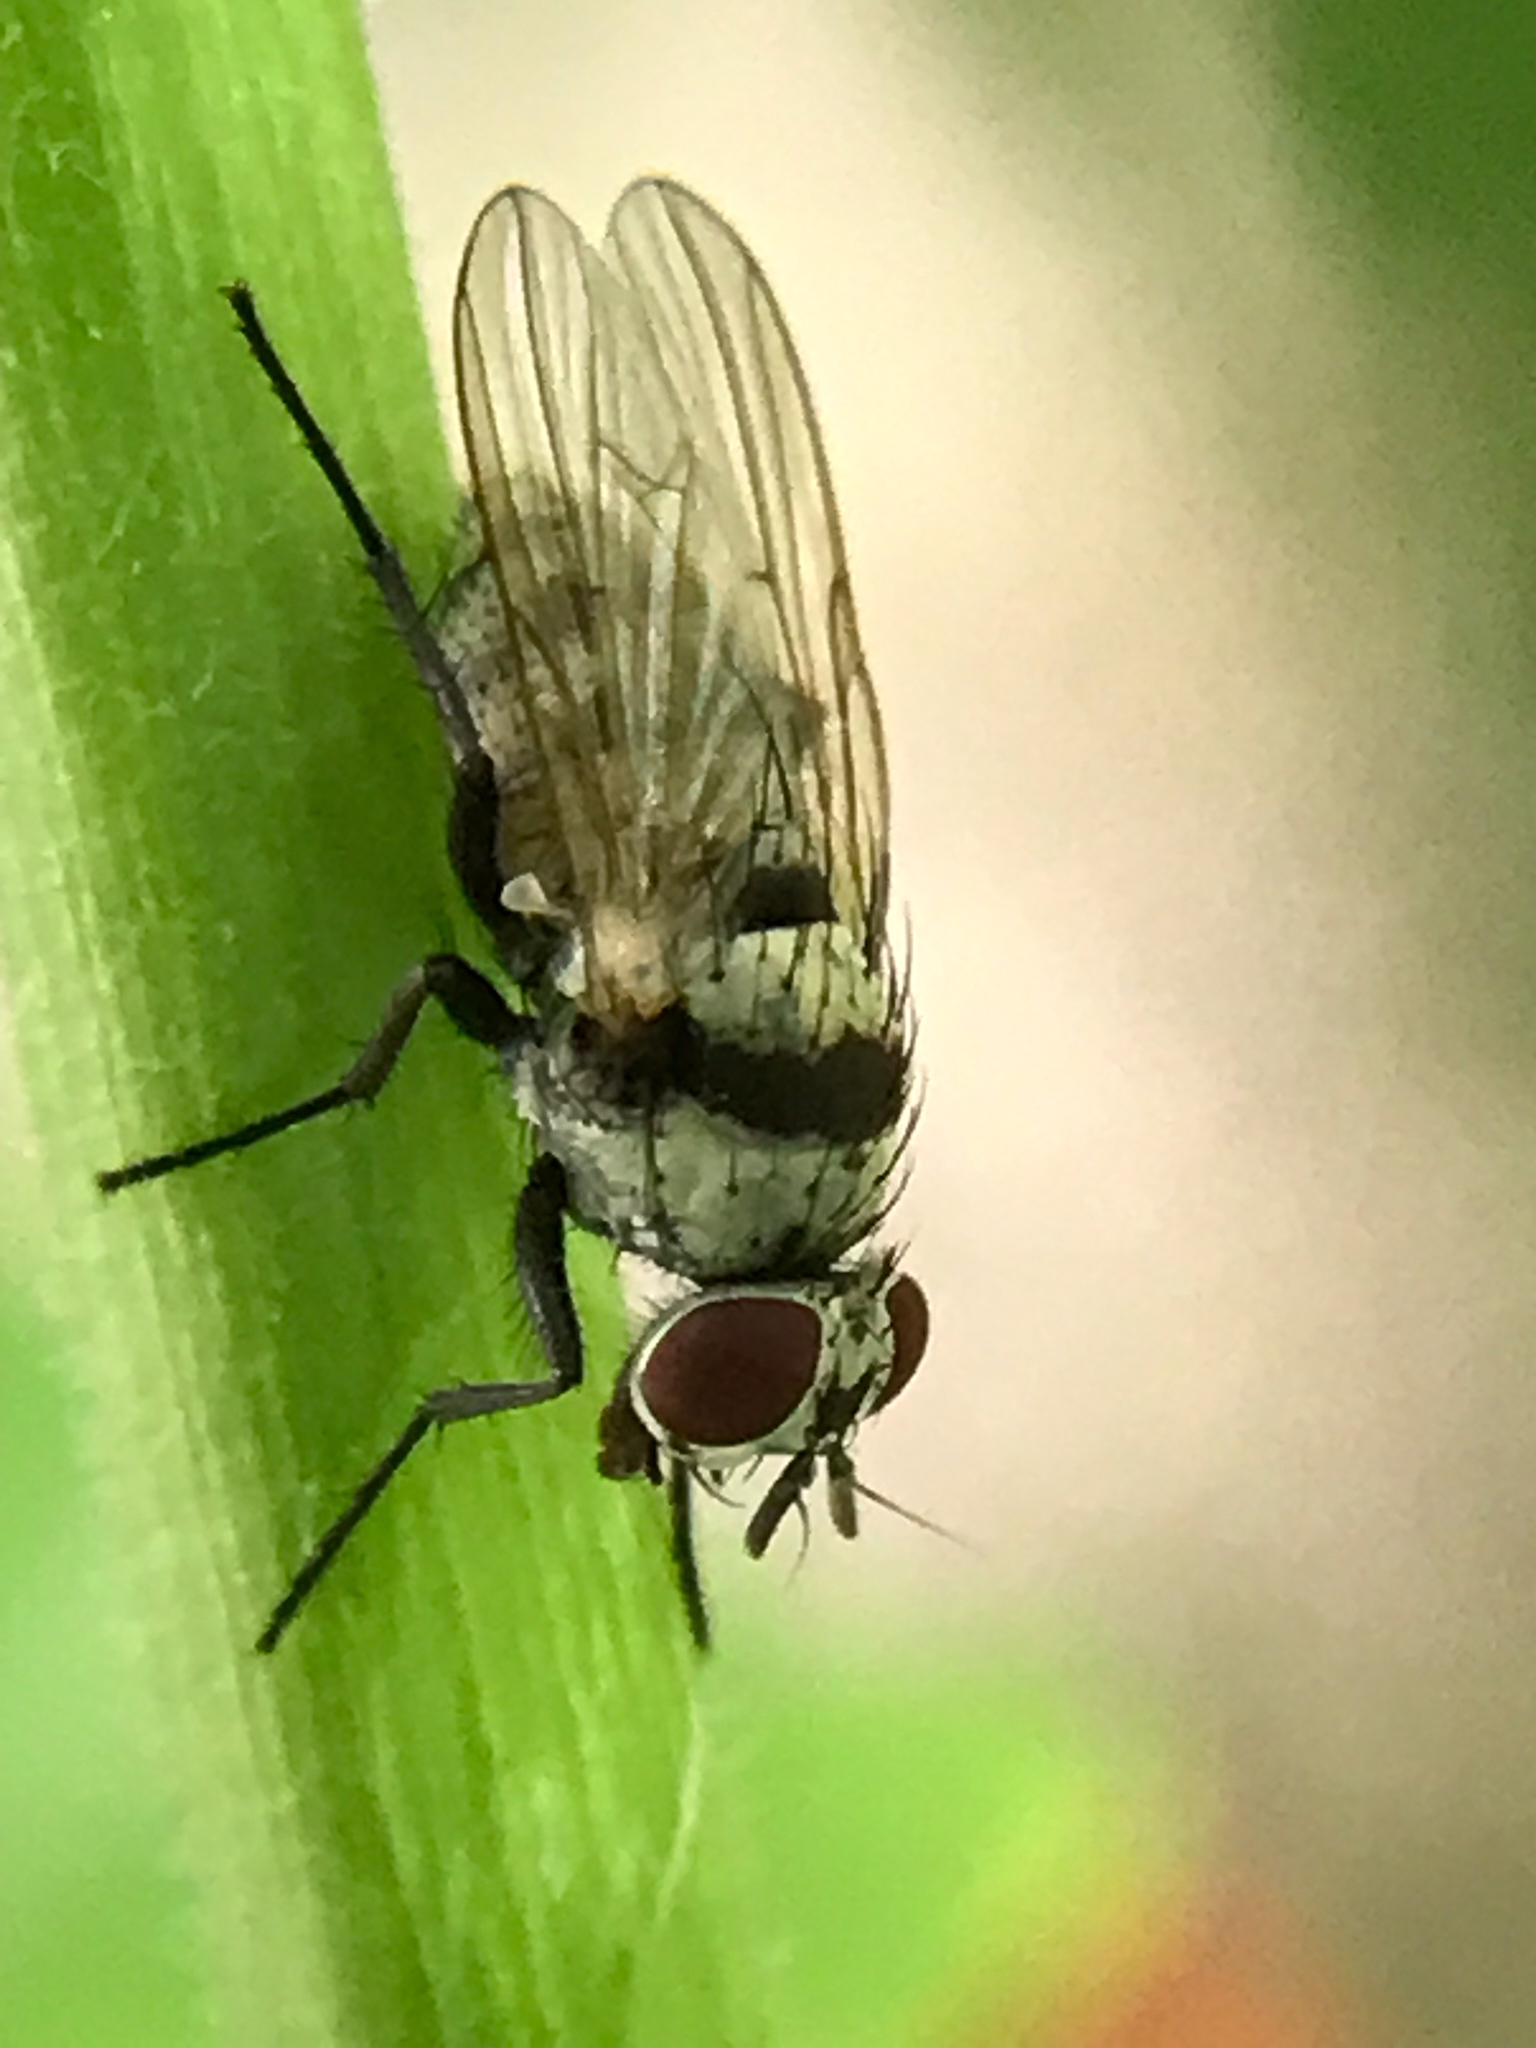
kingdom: Animalia
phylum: Arthropoda
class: Insecta
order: Diptera
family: Anthomyiidae
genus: Anthomyia
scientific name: Anthomyia illocata
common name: Fly
